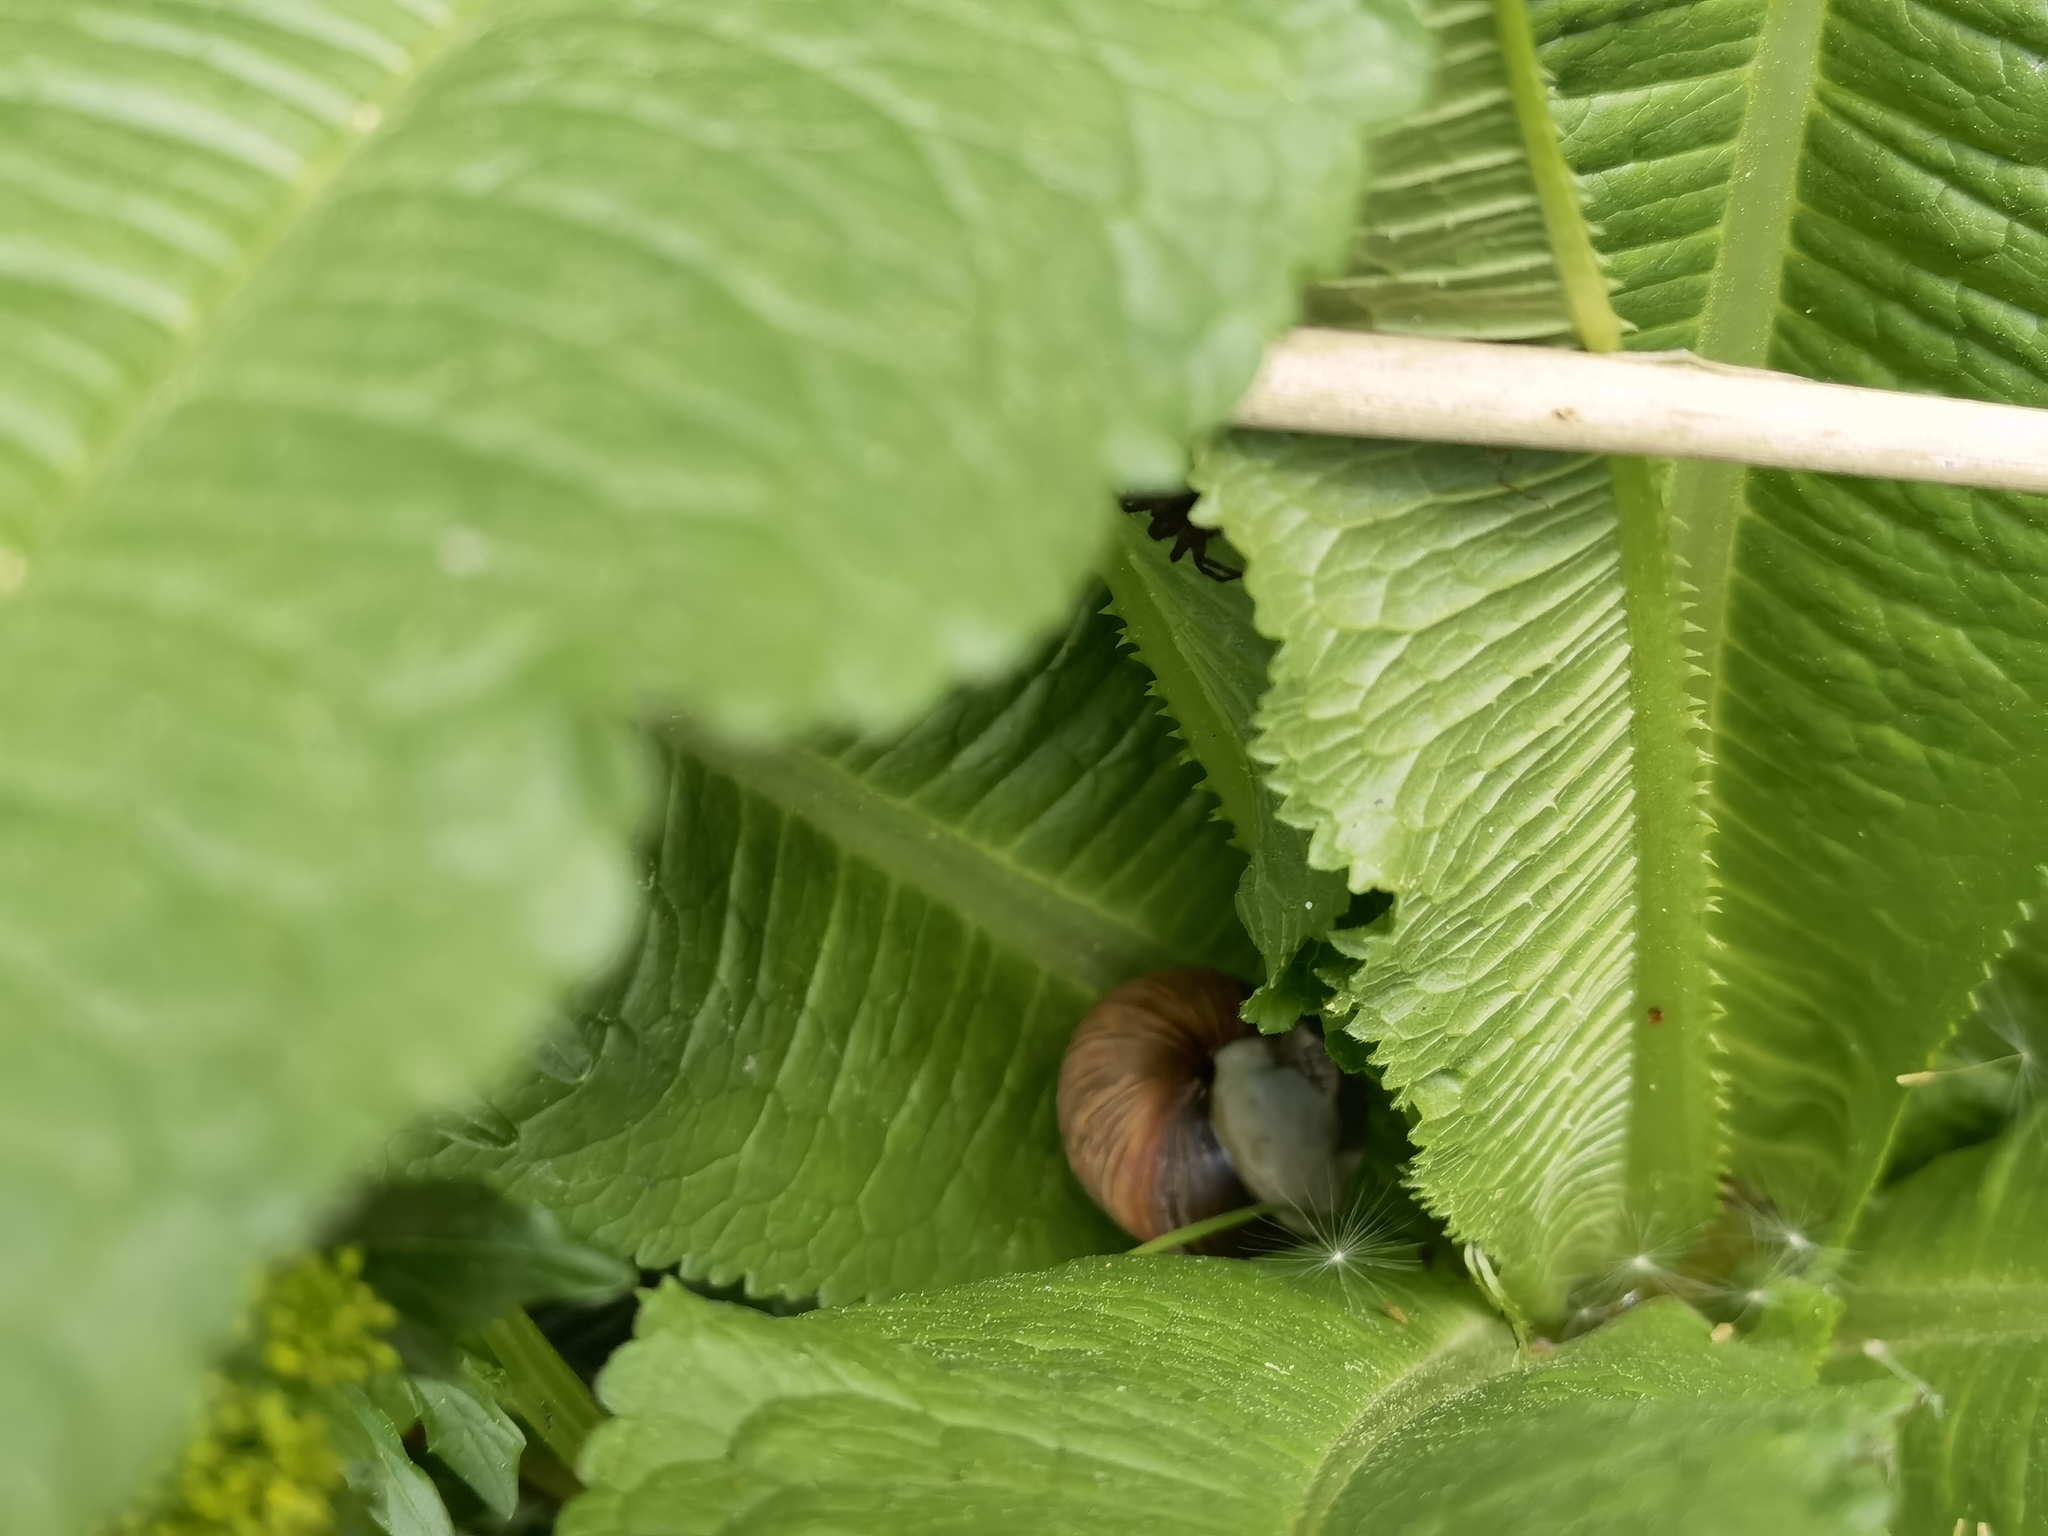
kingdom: Animalia
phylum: Mollusca
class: Gastropoda
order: Stylommatophora
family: Helicidae
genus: Helix
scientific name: Helix pomatia
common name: Roman snail
